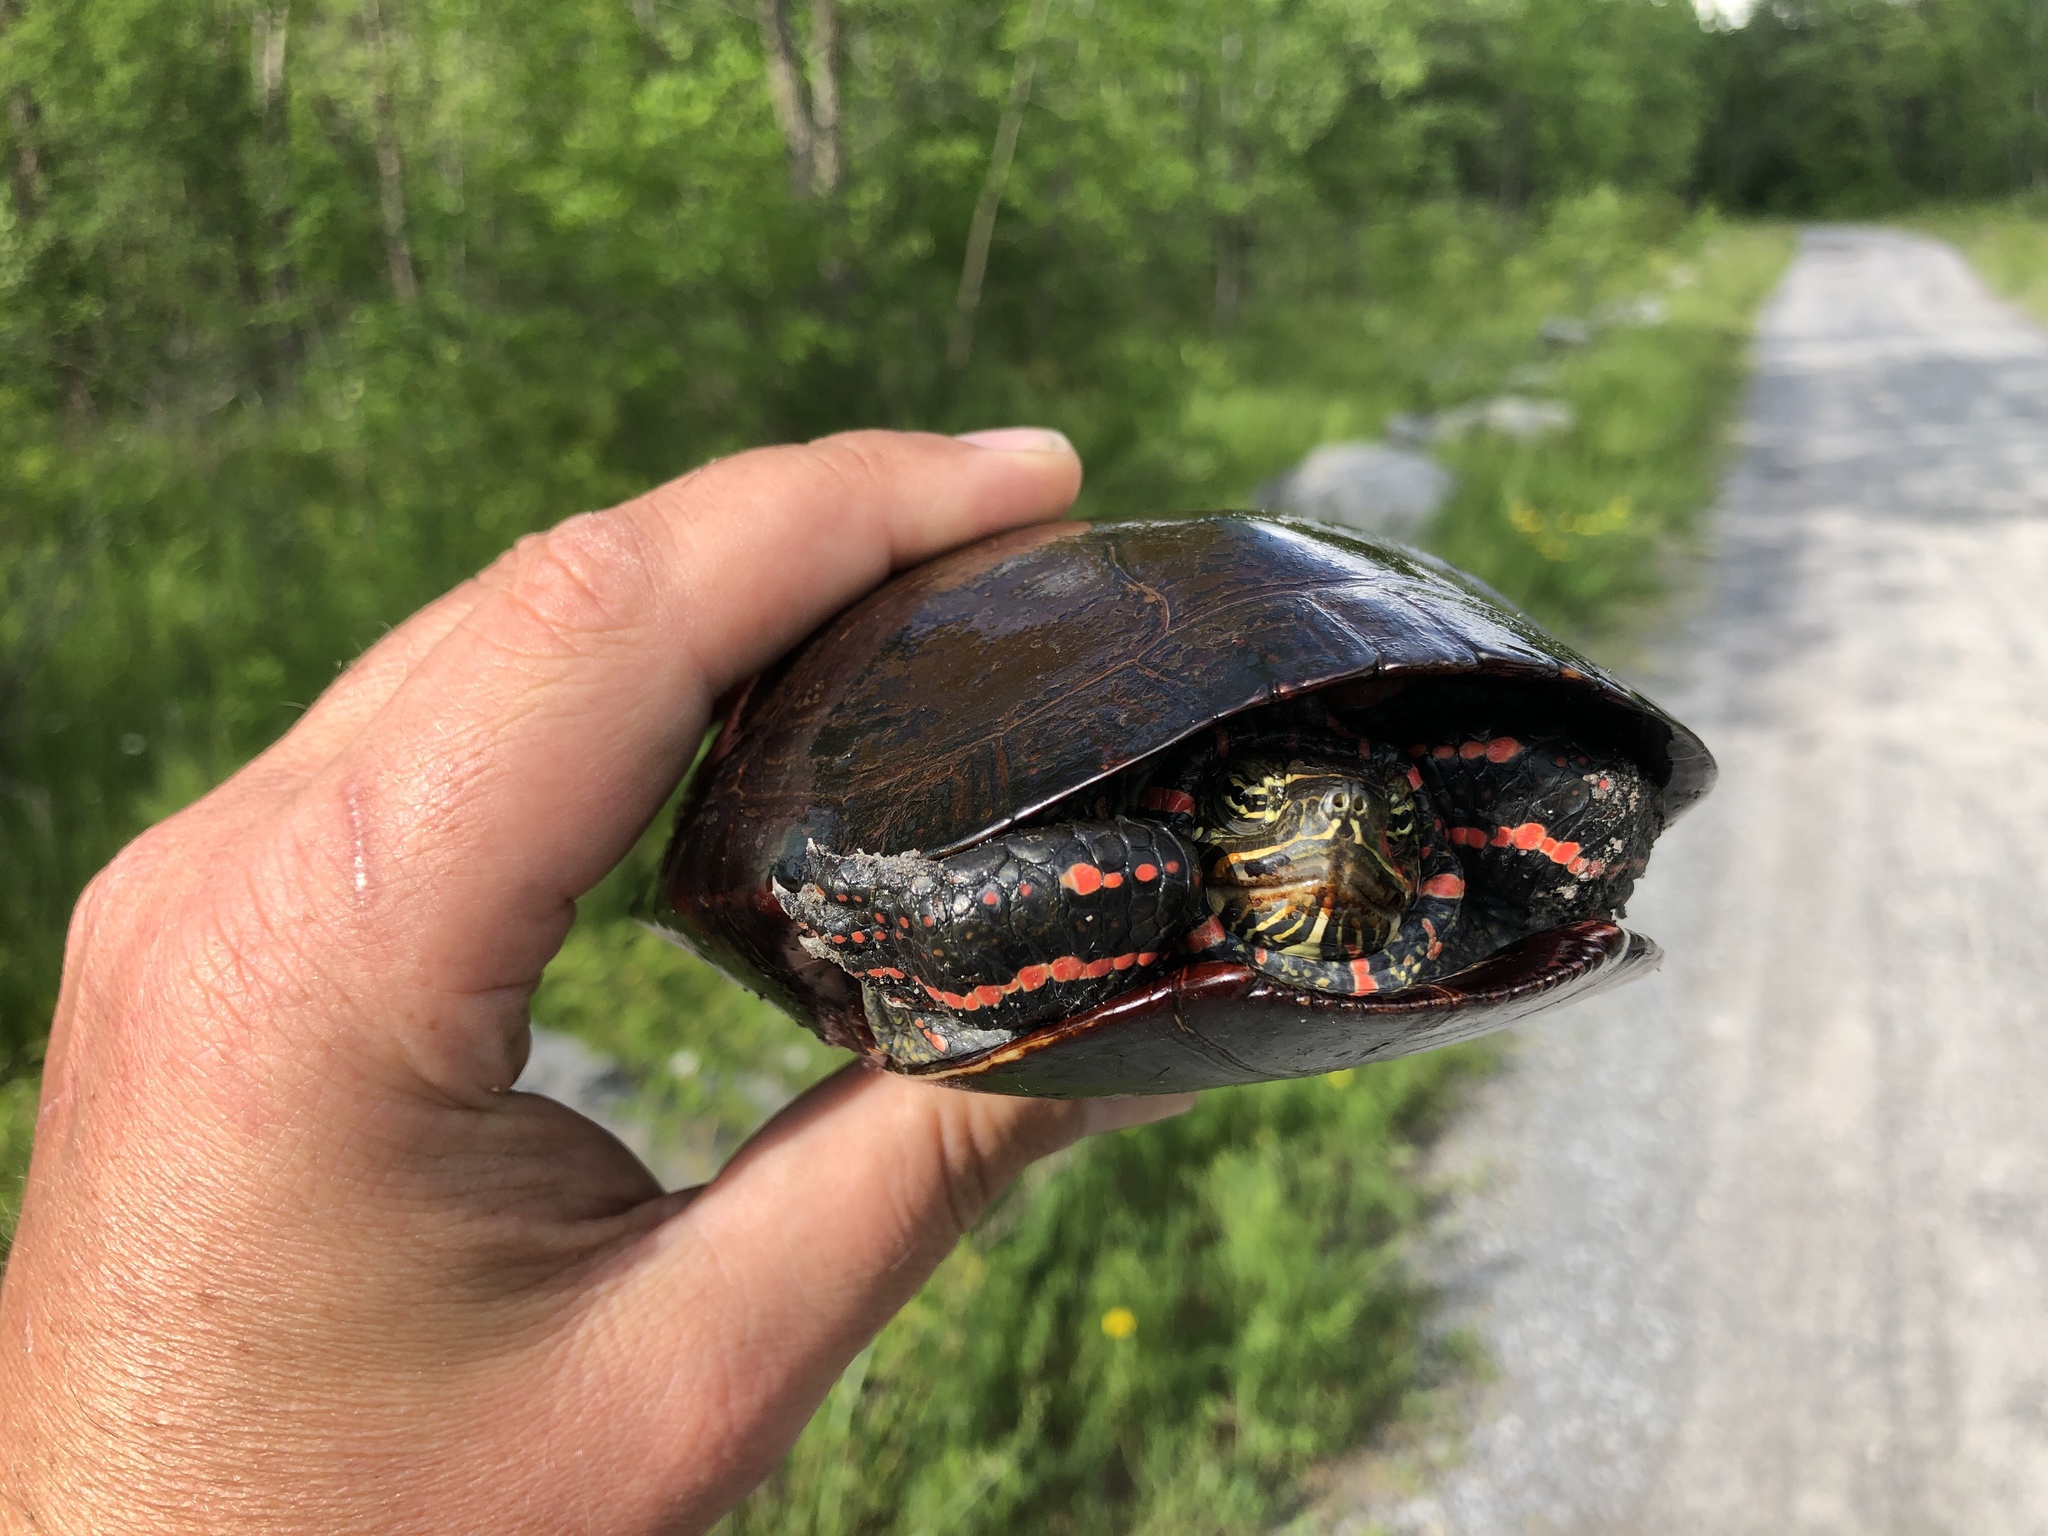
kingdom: Animalia
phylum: Chordata
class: Testudines
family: Emydidae
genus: Chrysemys
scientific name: Chrysemys picta
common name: Painted turtle
